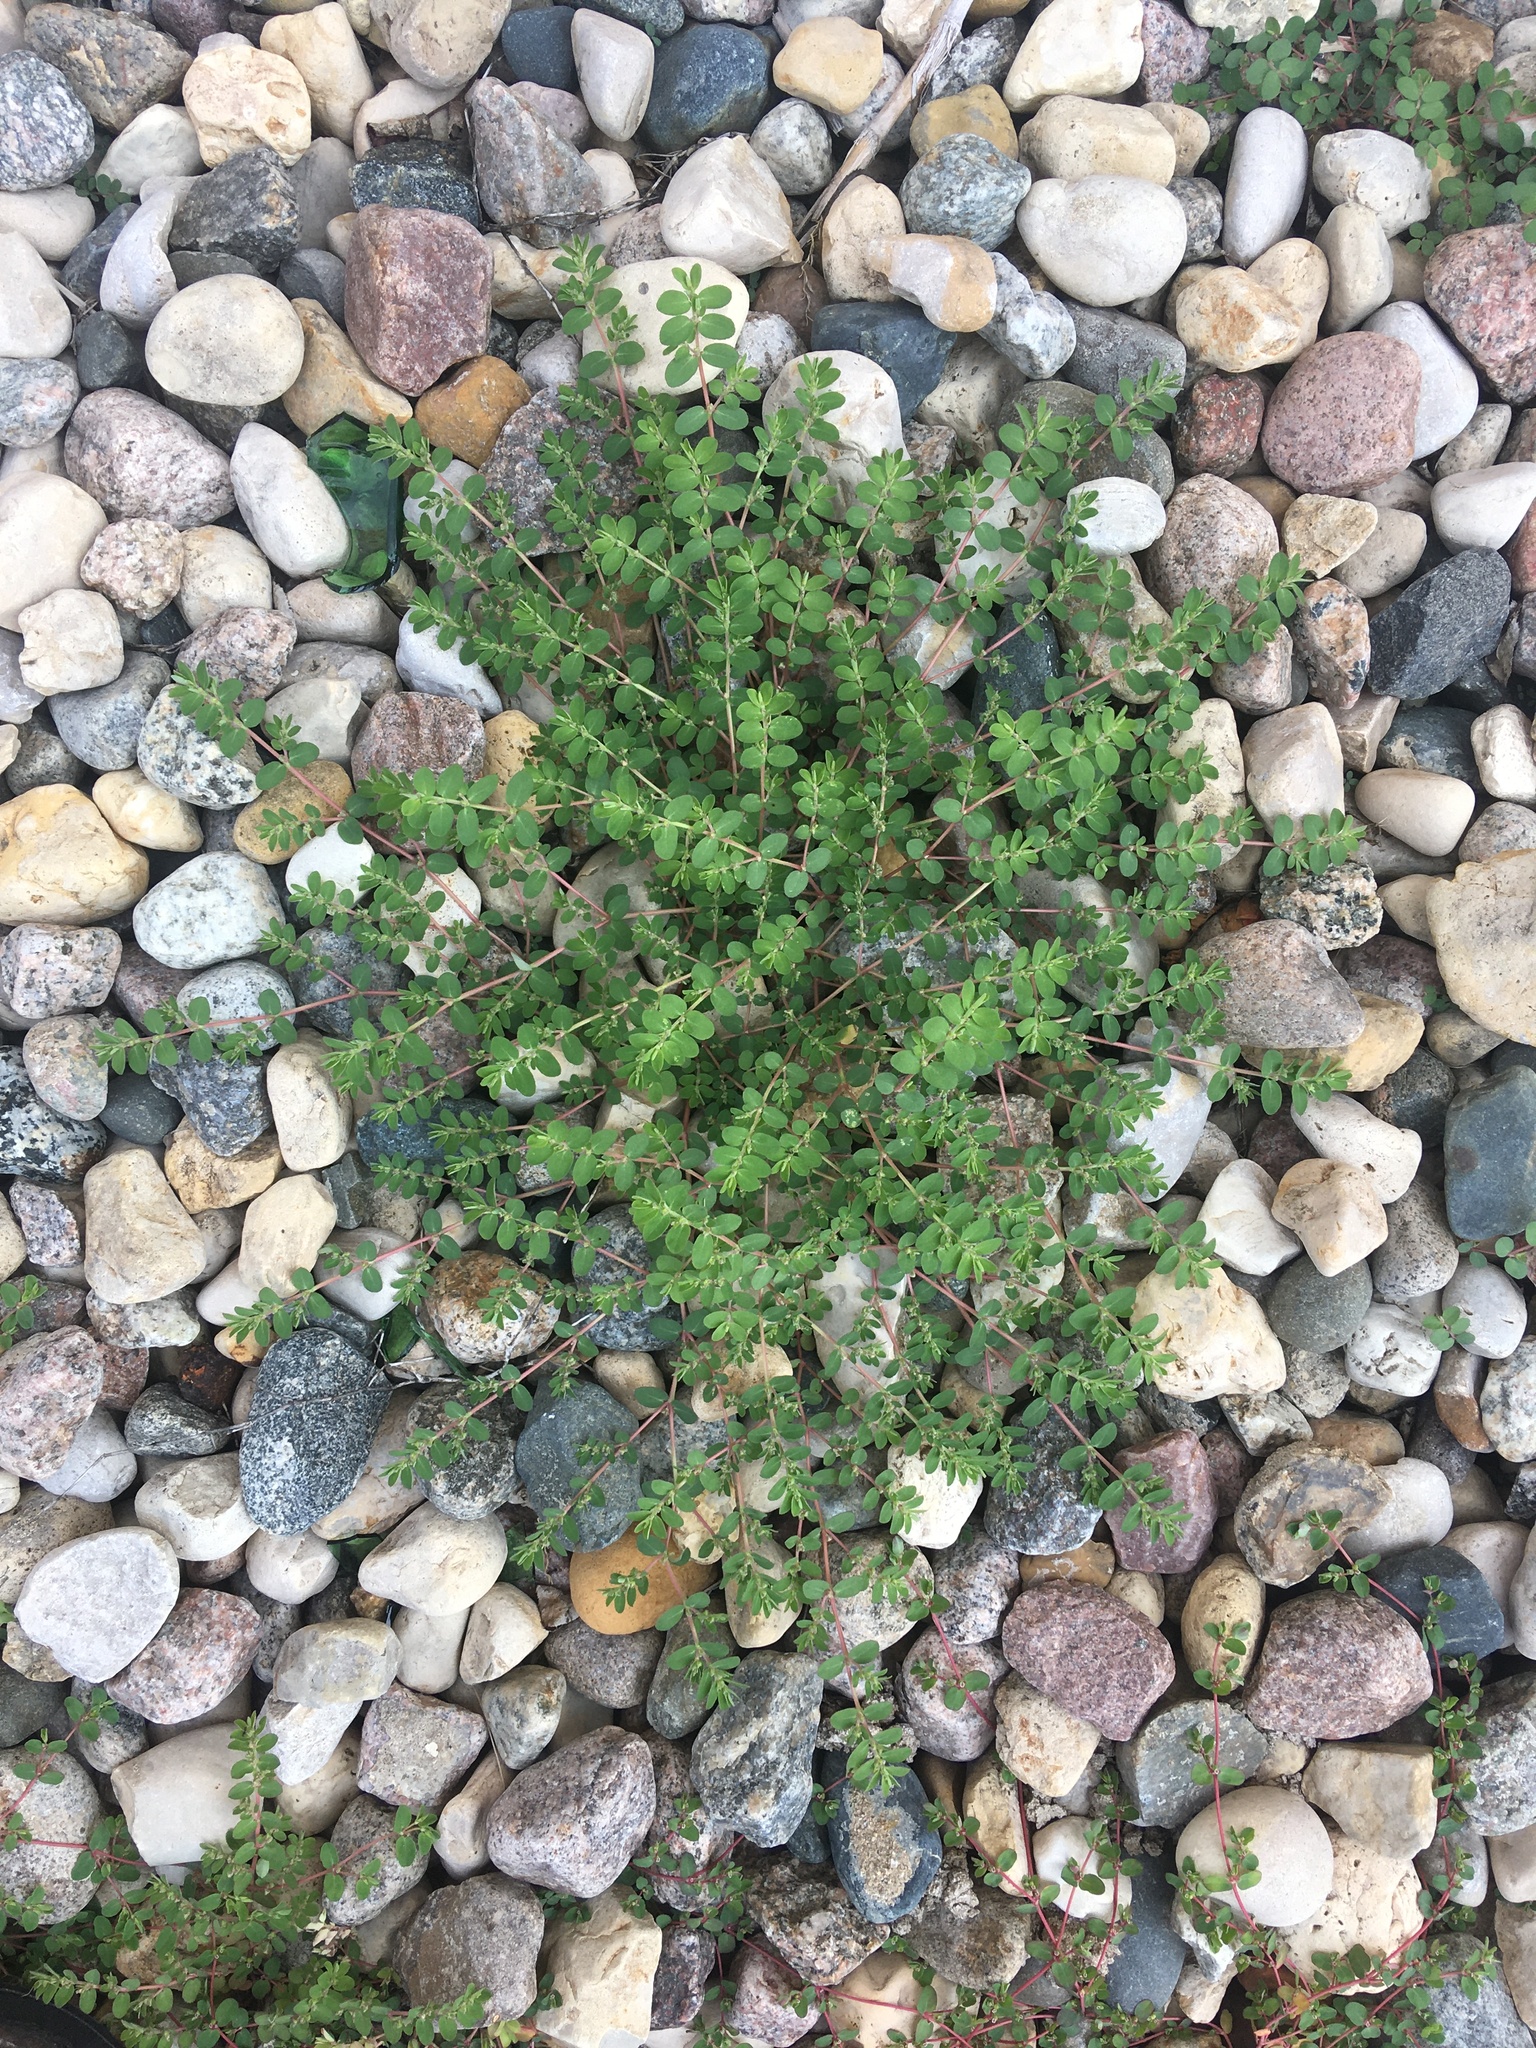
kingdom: Plantae
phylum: Tracheophyta
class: Magnoliopsida
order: Malpighiales
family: Euphorbiaceae
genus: Euphorbia
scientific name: Euphorbia prostrata
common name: Prostrate sandmat
